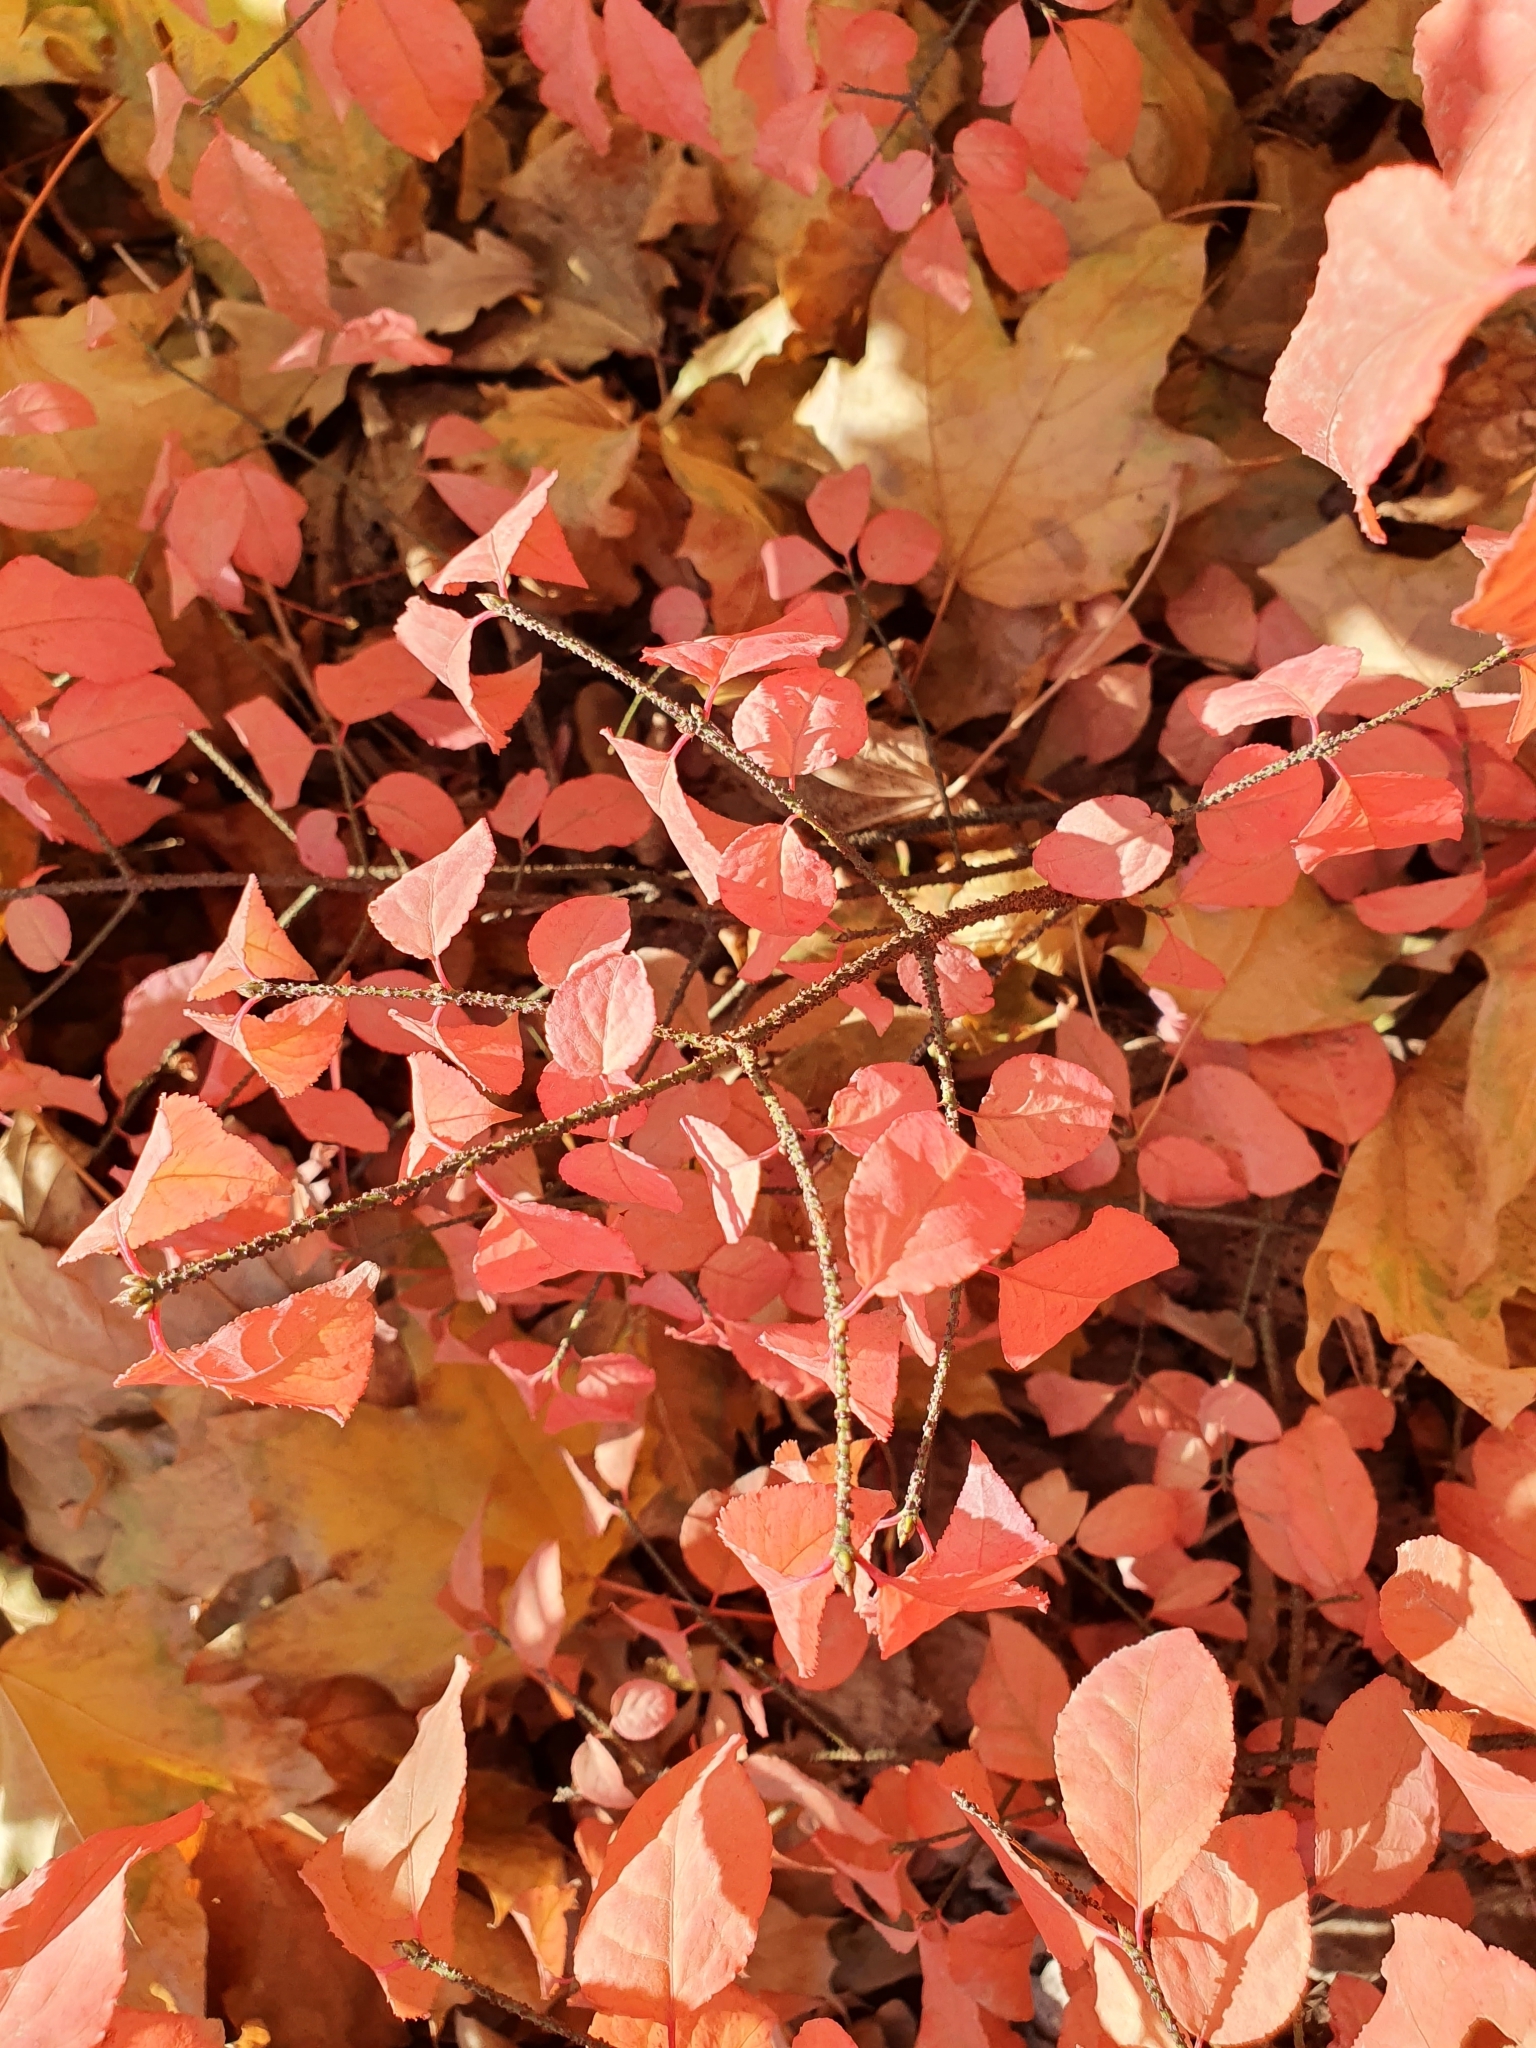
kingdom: Plantae
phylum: Tracheophyta
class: Magnoliopsida
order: Celastrales
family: Celastraceae
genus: Euonymus
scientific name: Euonymus verrucosus
